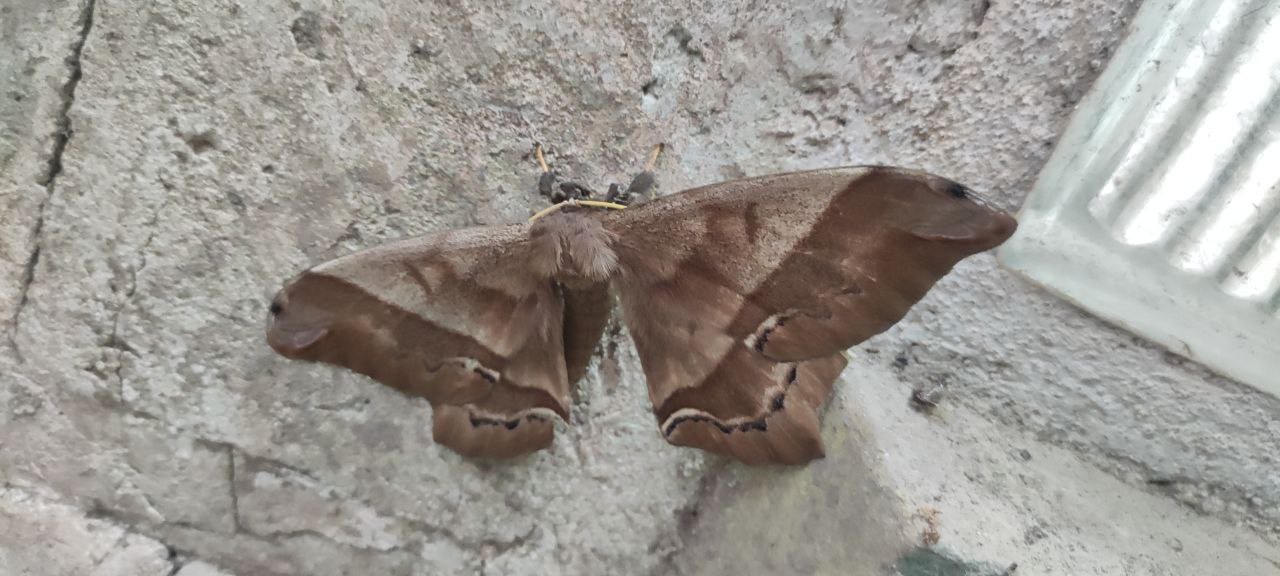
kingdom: Animalia
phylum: Arthropoda
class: Insecta
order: Lepidoptera
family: Saturniidae
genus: Arsenura
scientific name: Arsenura armida
